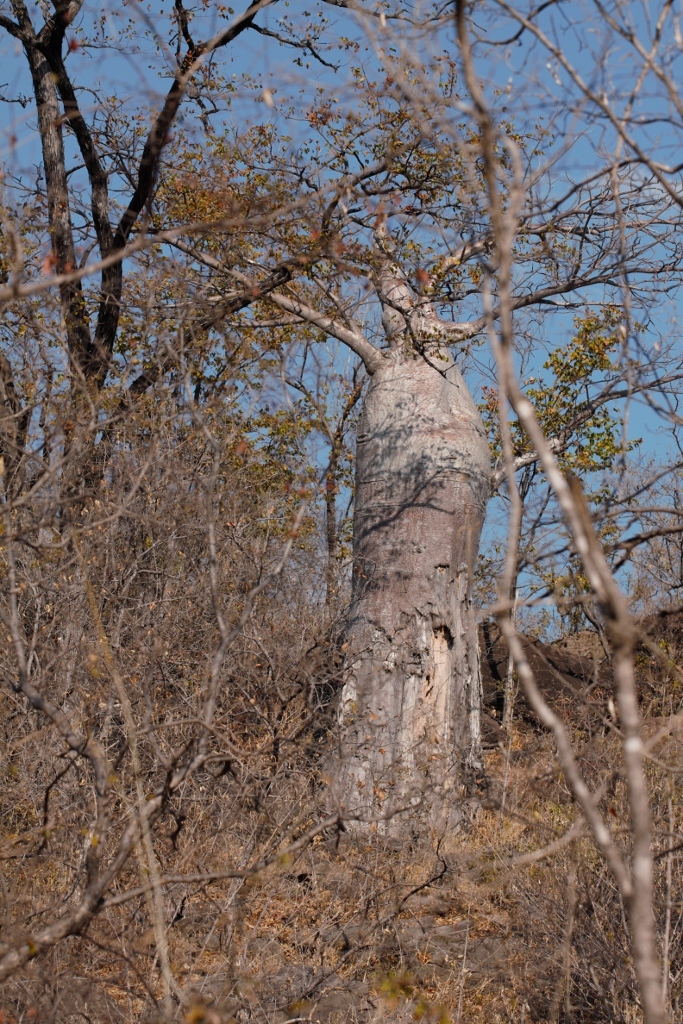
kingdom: Plantae
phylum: Tracheophyta
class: Magnoliopsida
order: Malvales
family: Malvaceae
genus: Adansonia
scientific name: Adansonia digitata
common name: Dead-rat-tree
